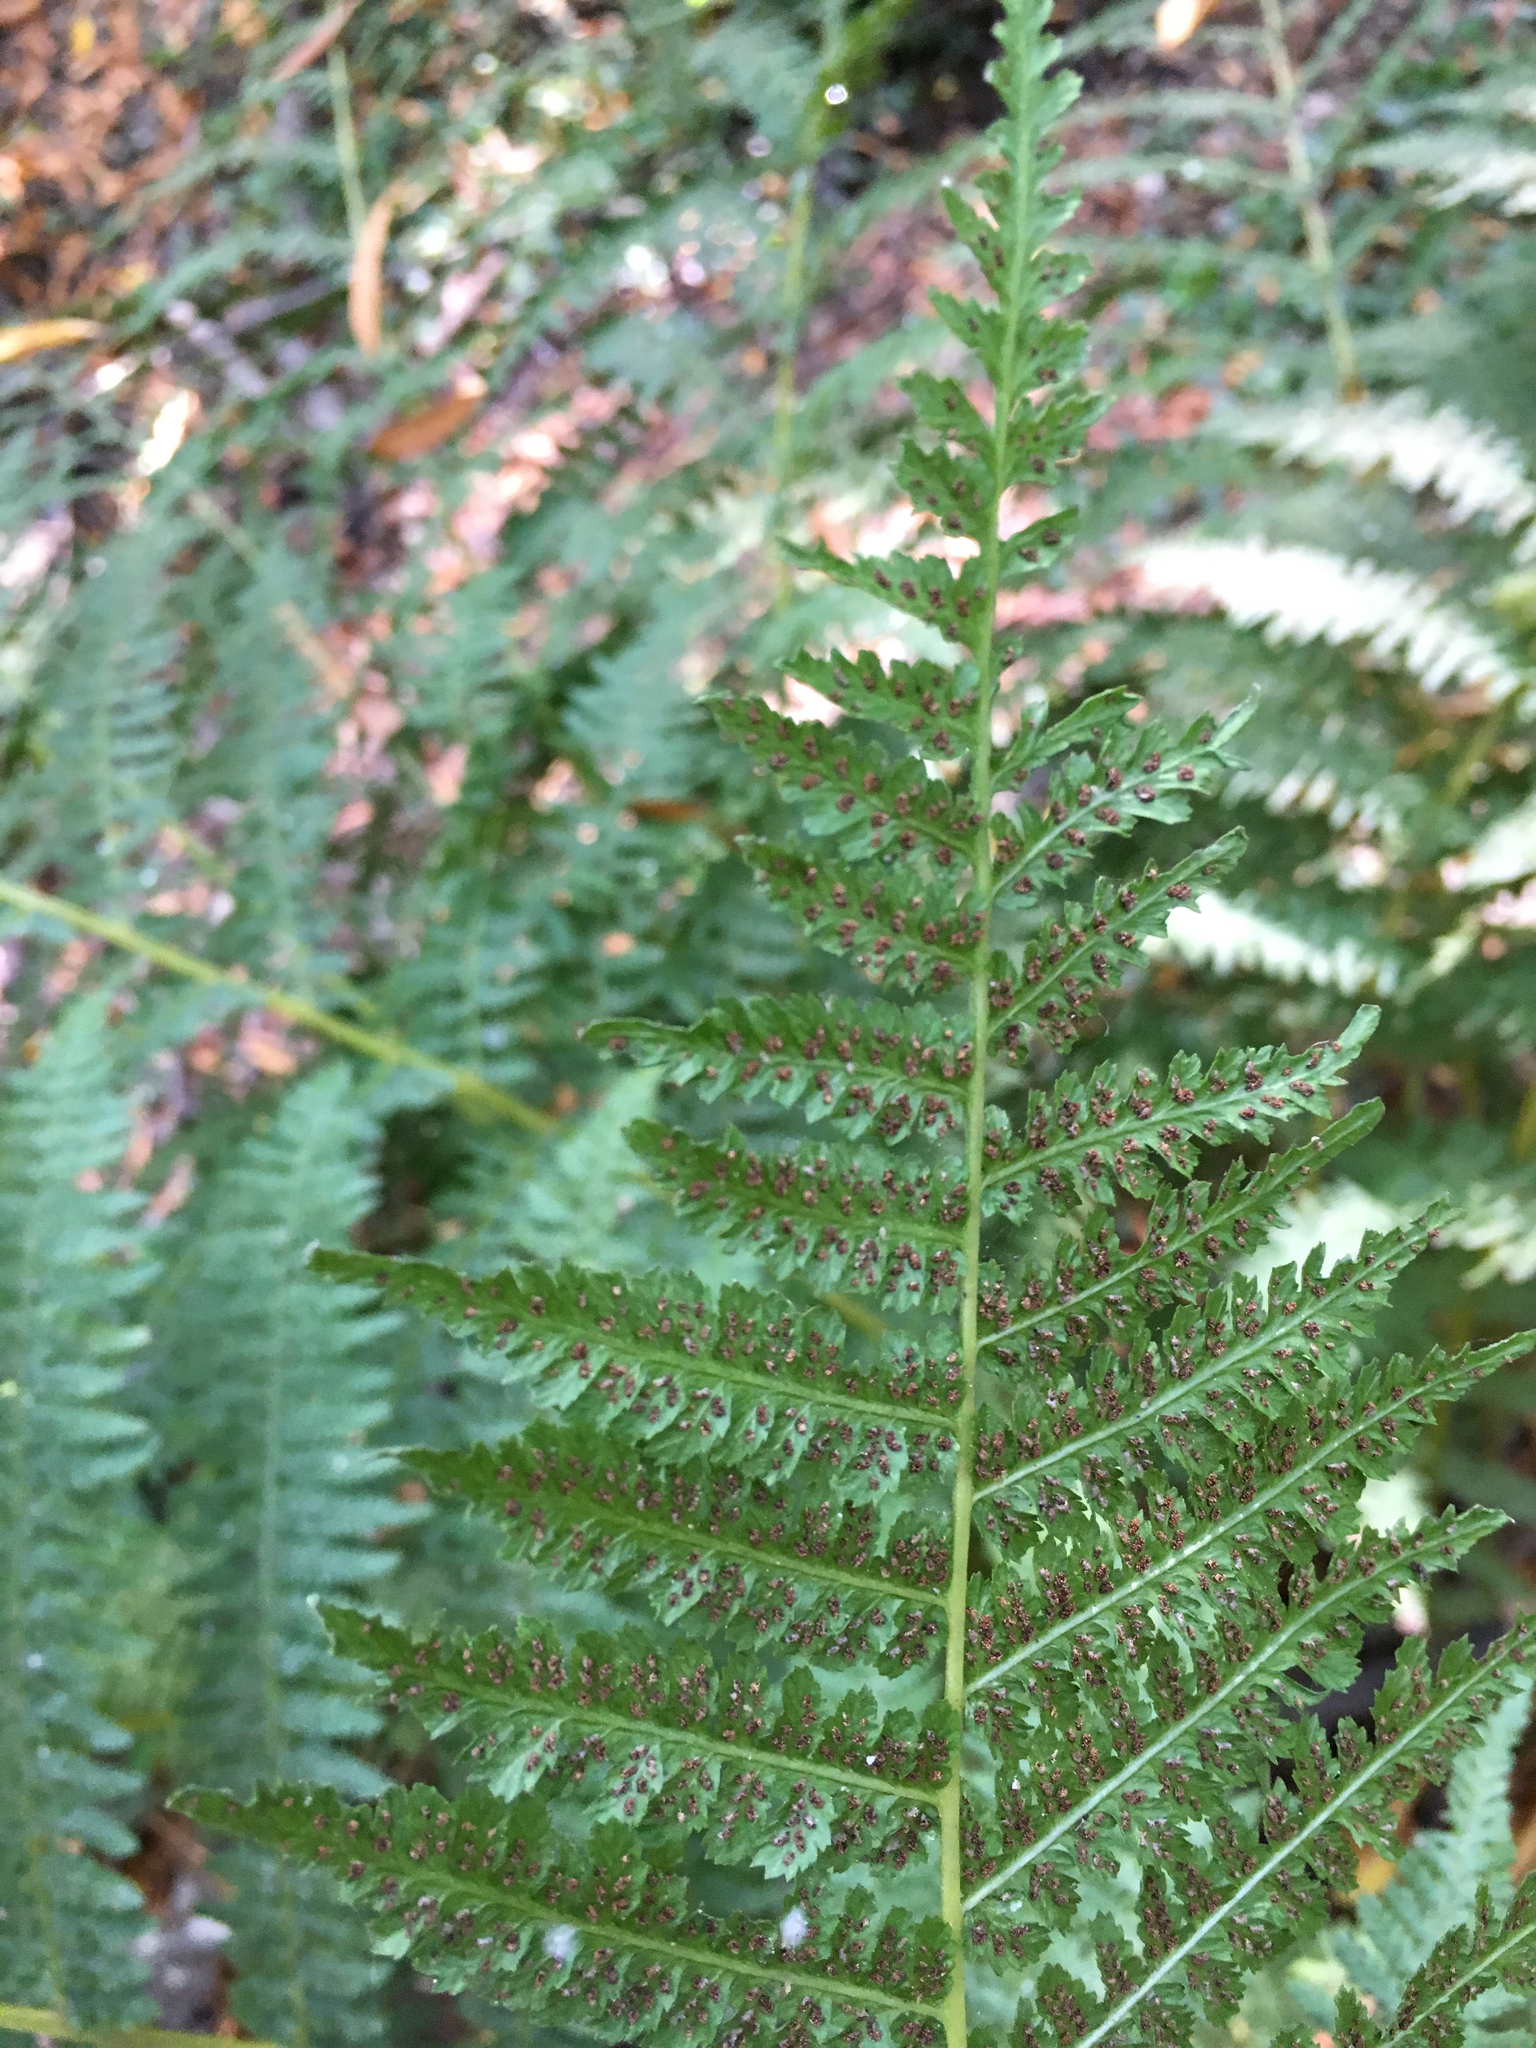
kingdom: Plantae
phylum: Tracheophyta
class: Polypodiopsida
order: Polypodiales
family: Athyriaceae
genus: Athyrium
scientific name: Athyrium filix-femina
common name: Lady fern
